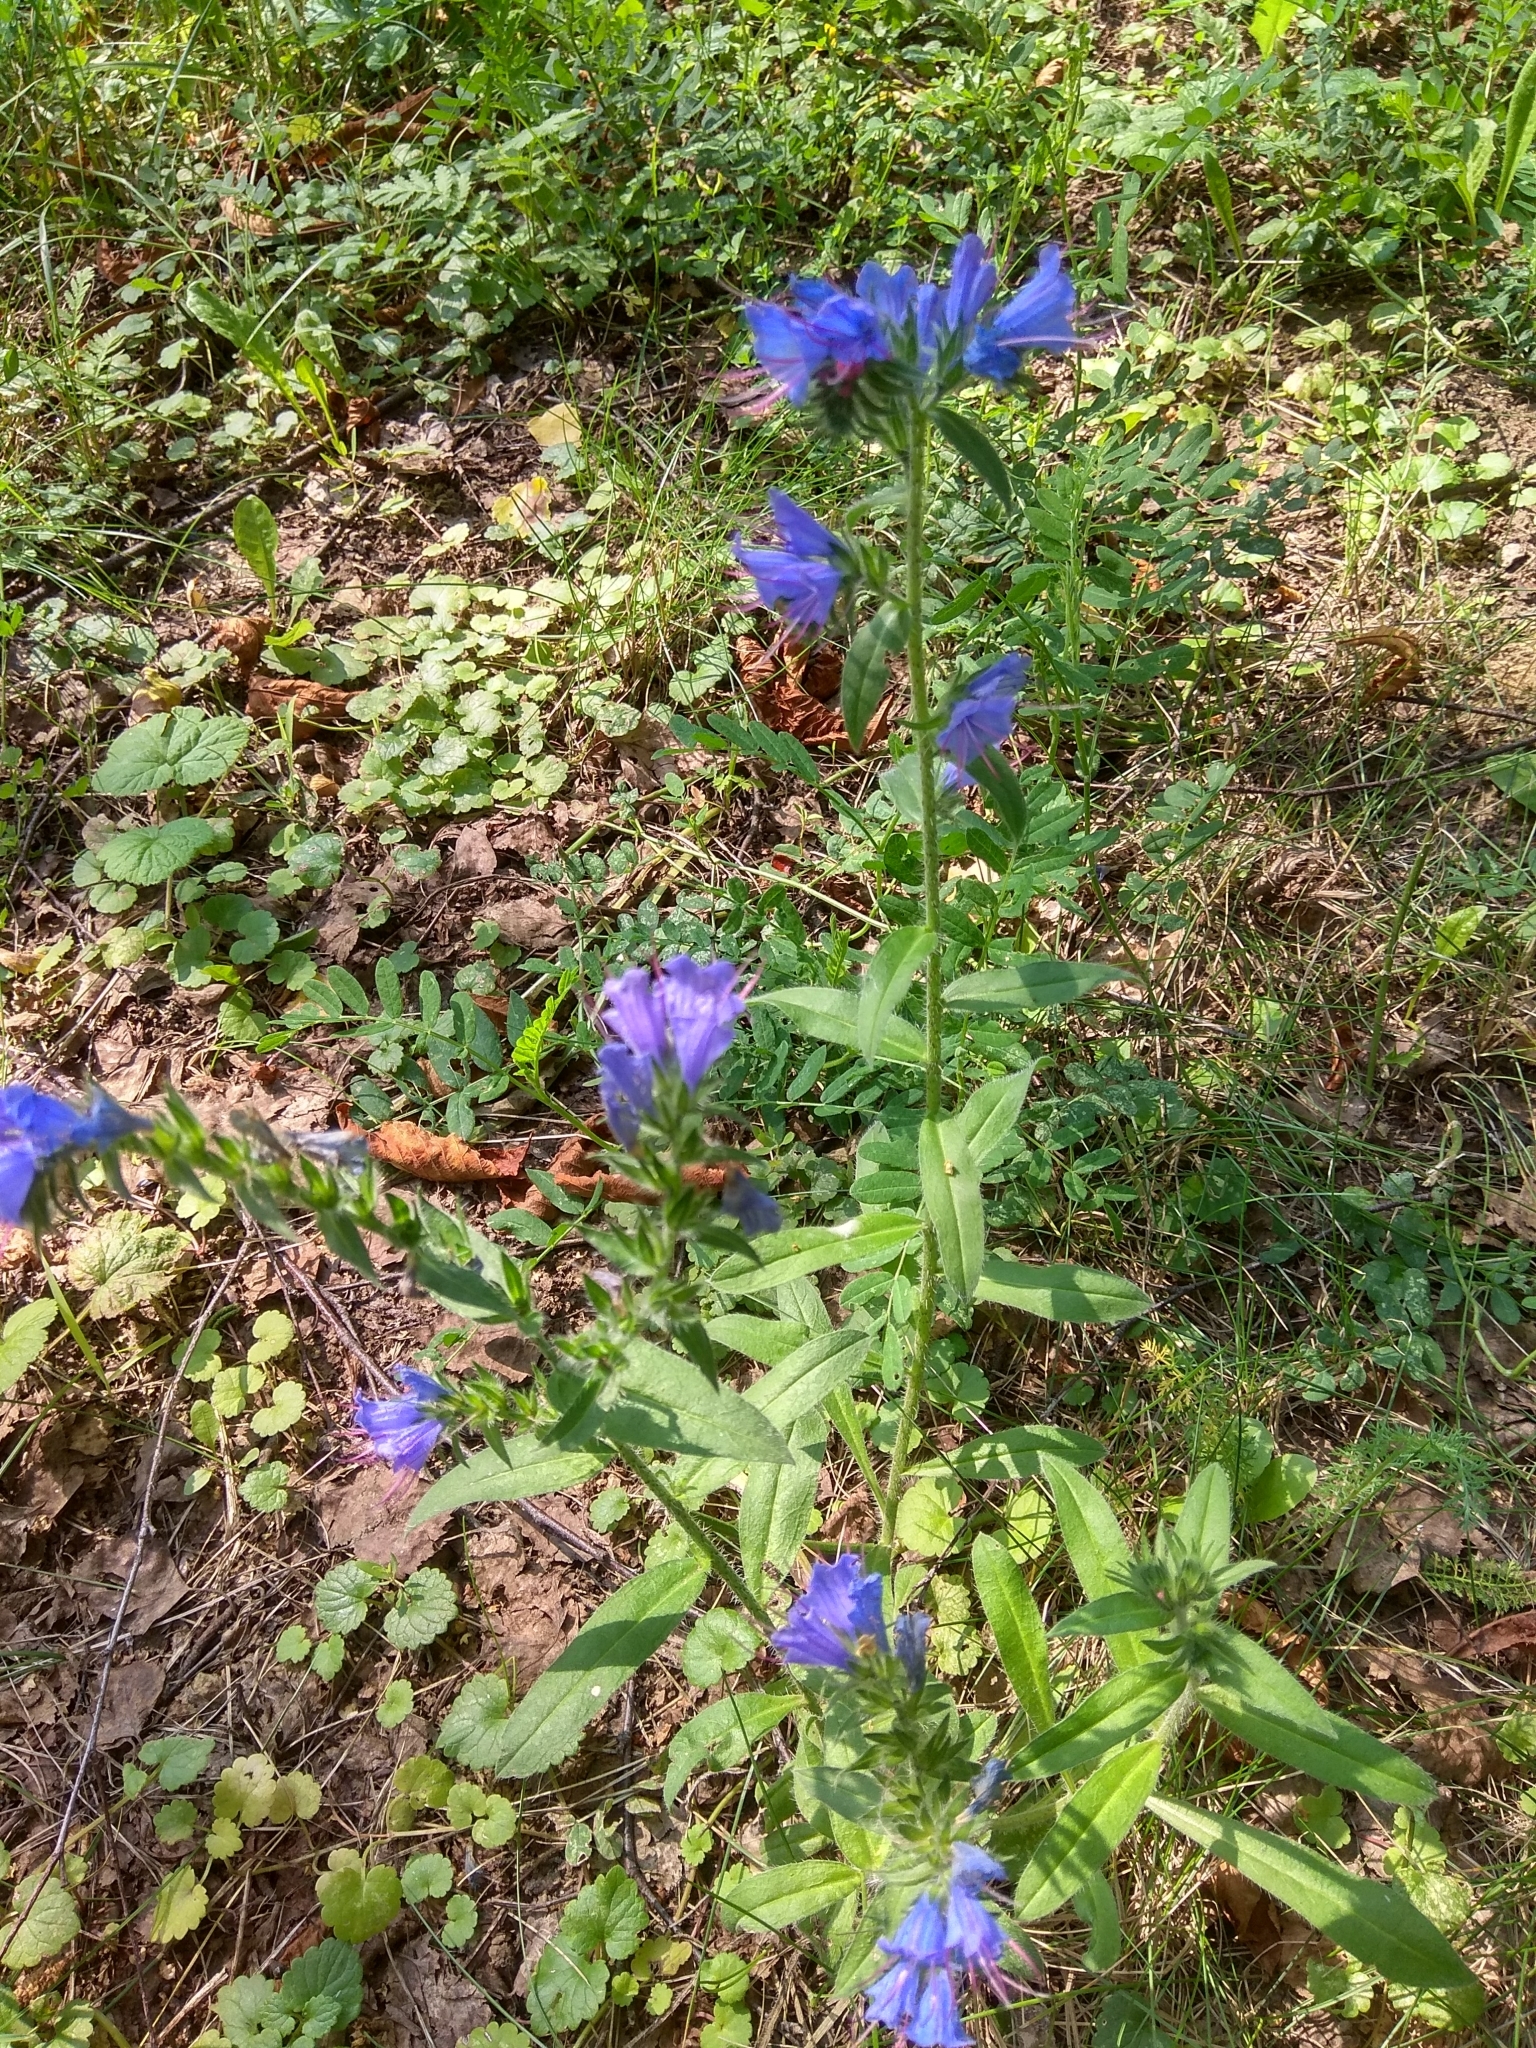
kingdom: Plantae
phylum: Tracheophyta
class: Magnoliopsida
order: Boraginales
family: Boraginaceae
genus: Echium
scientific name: Echium vulgare
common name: Common viper's bugloss
